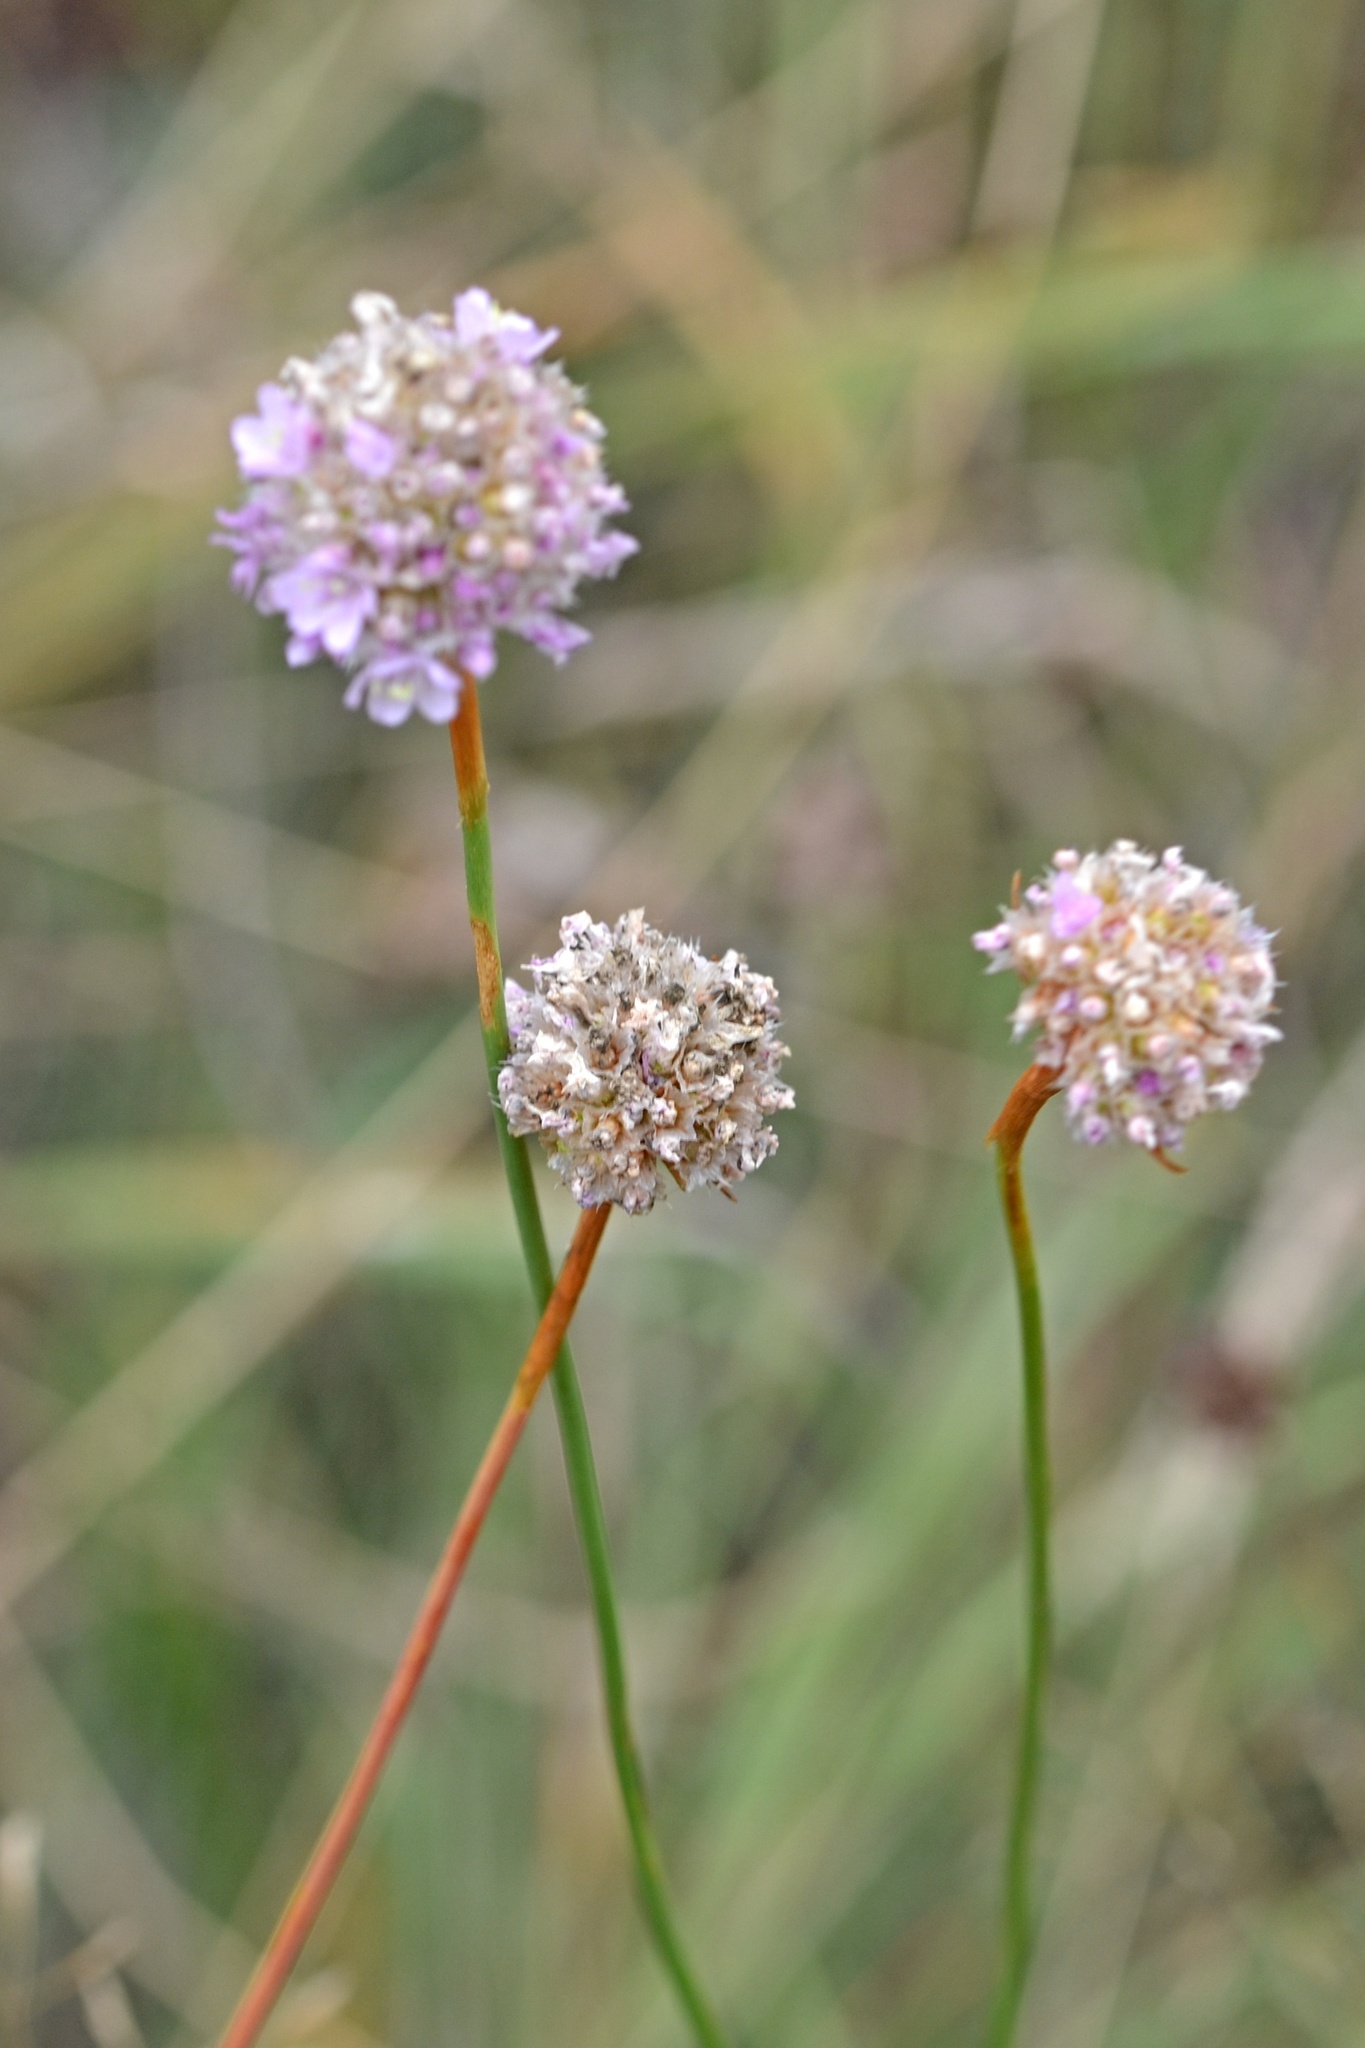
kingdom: Plantae
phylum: Tracheophyta
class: Magnoliopsida
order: Caryophyllales
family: Plumbaginaceae
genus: Armeria
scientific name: Armeria maritima
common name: Thrift
